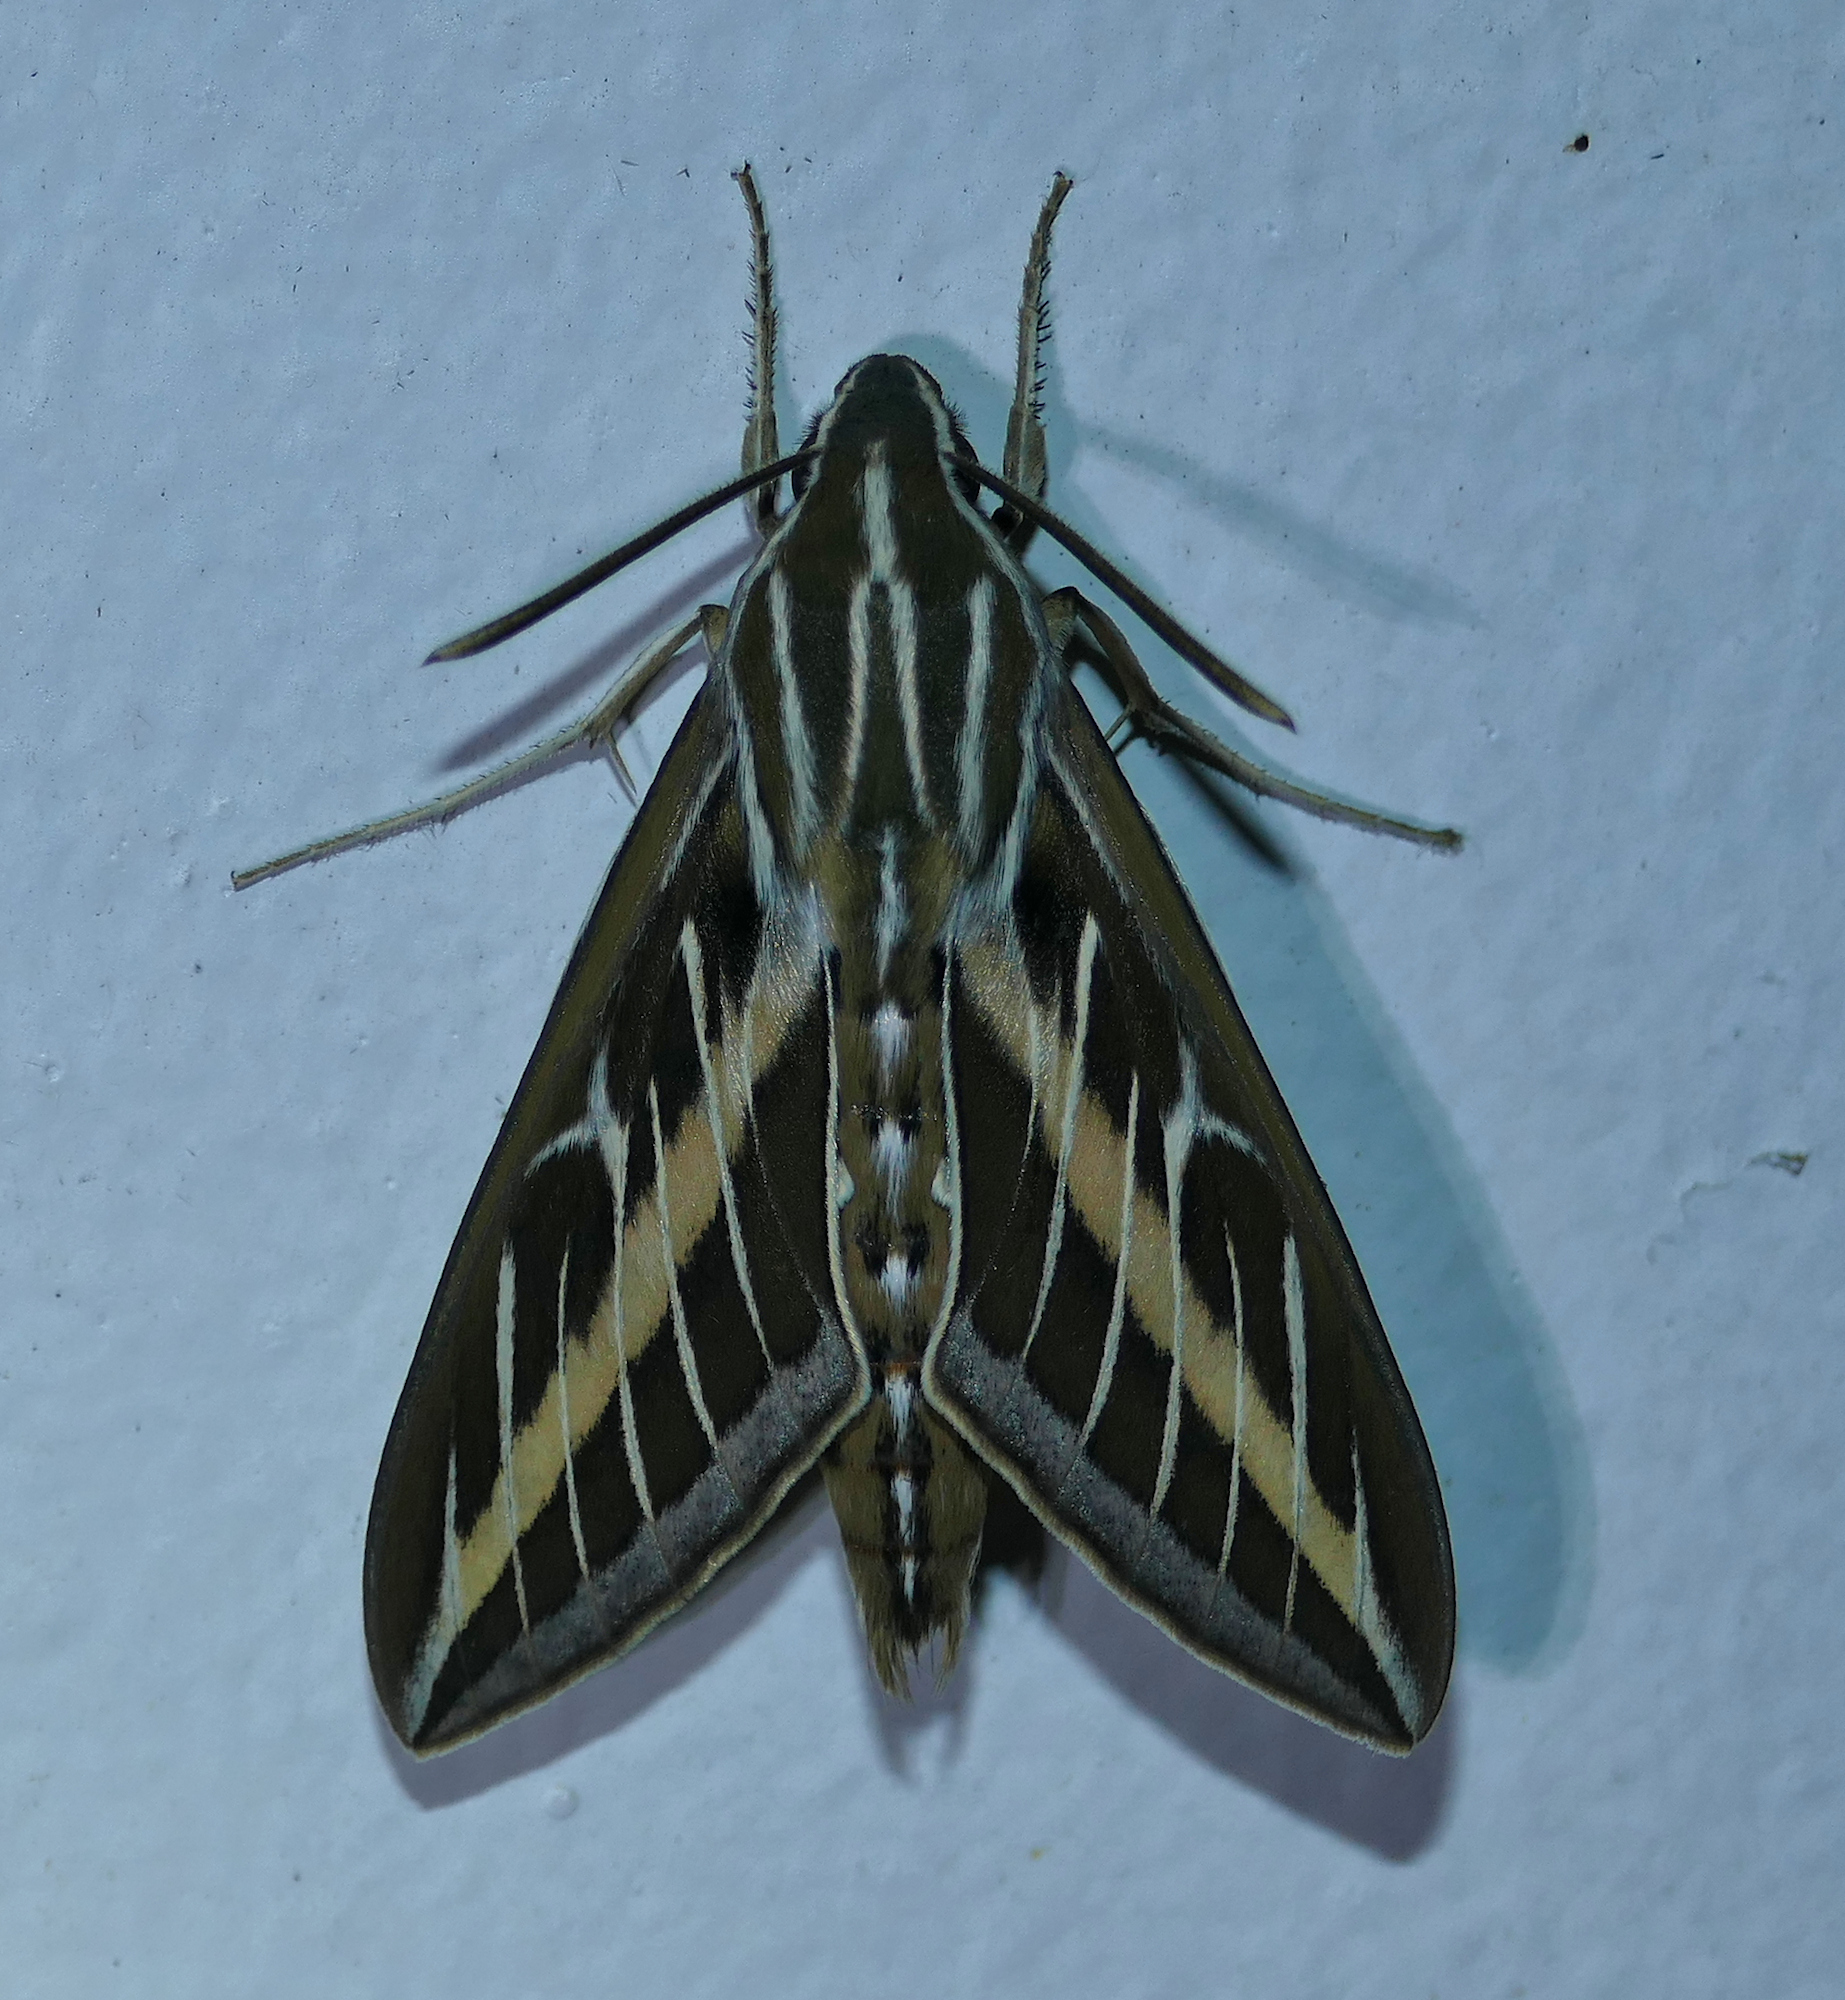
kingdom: Animalia
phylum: Arthropoda
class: Insecta
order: Lepidoptera
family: Sphingidae
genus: Hyles
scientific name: Hyles lineata
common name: White-lined sphinx
